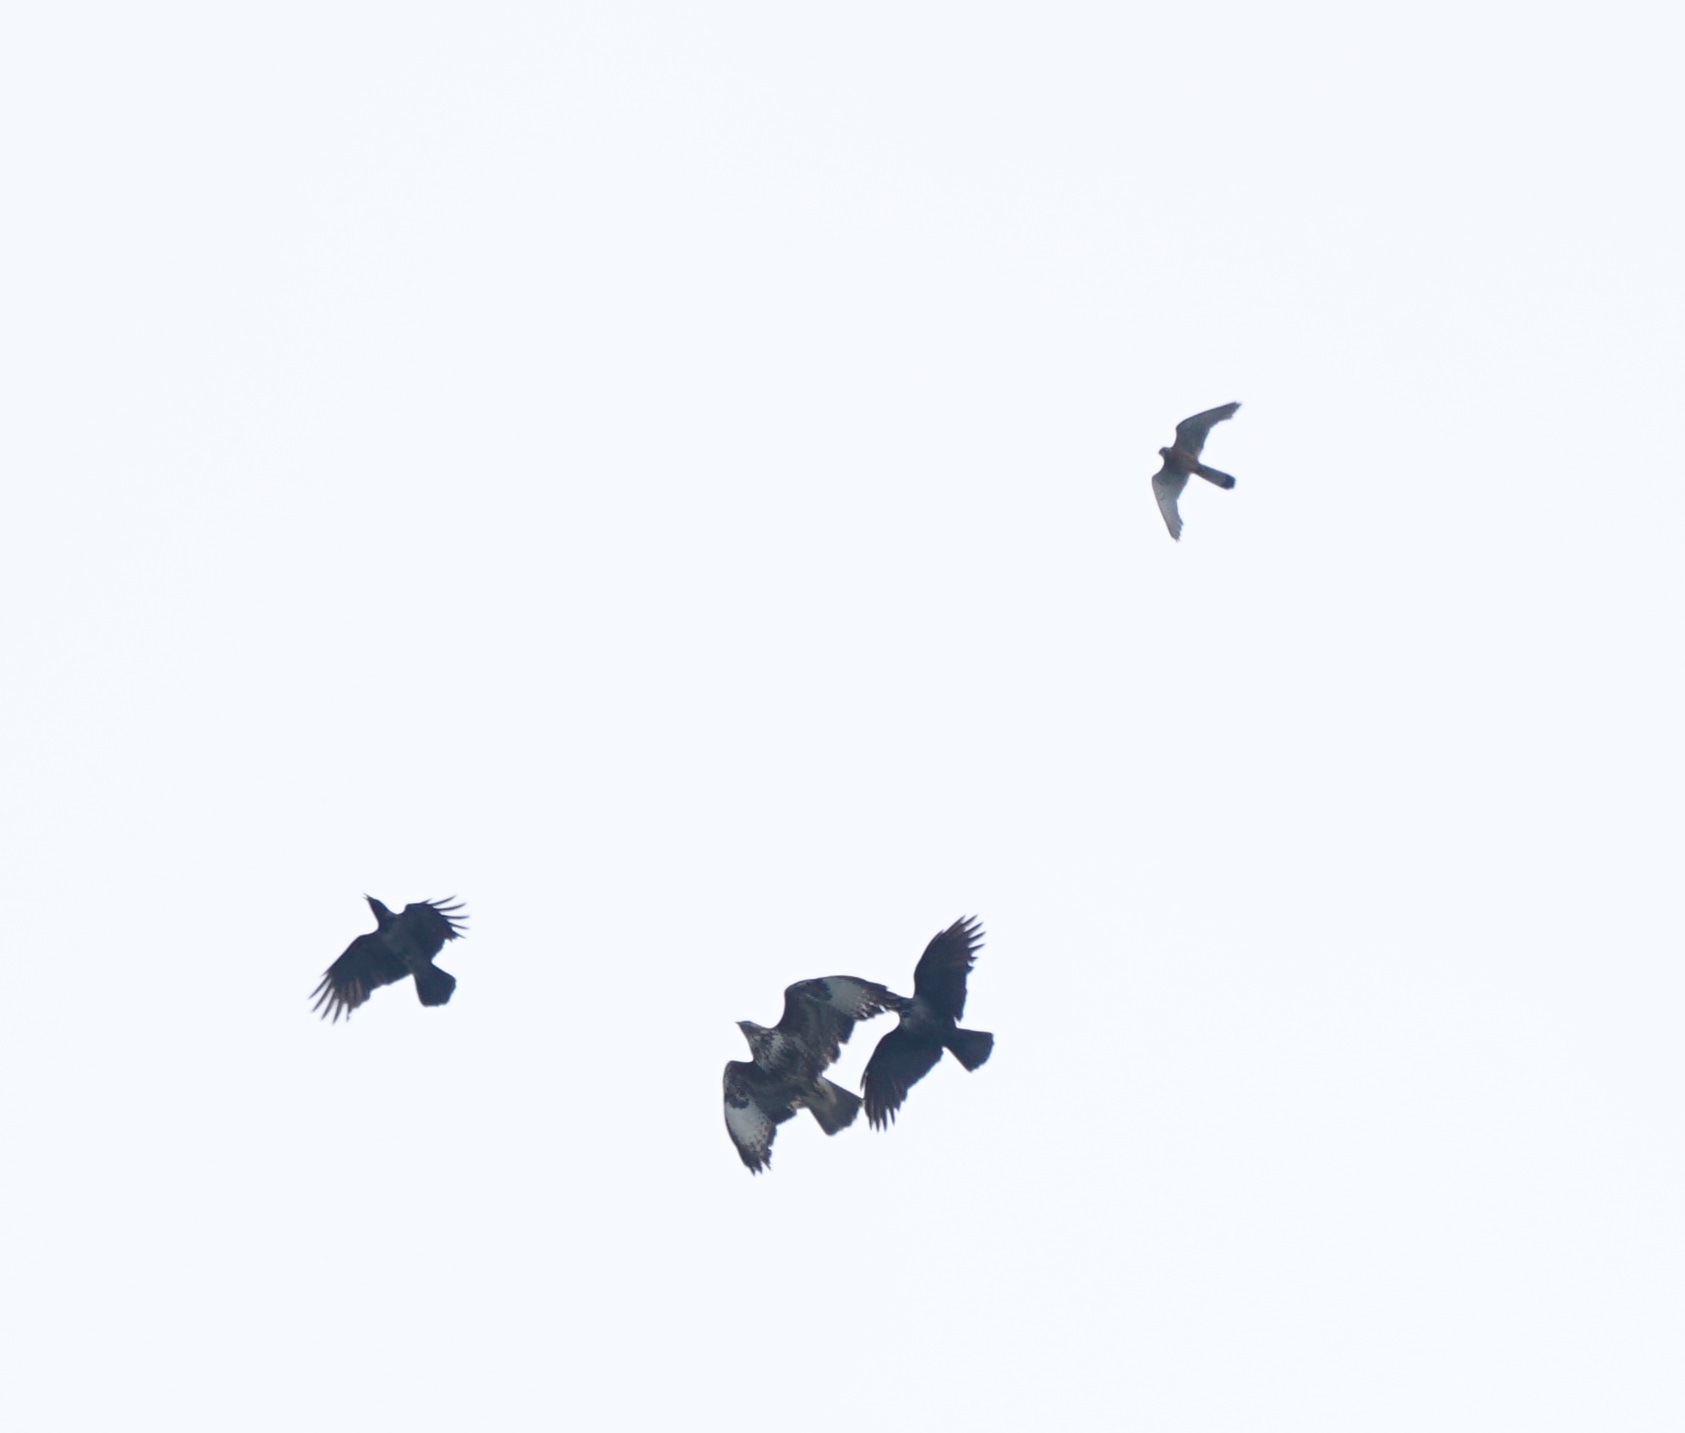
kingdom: Animalia
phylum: Chordata
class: Aves
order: Accipitriformes
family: Accipitridae
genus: Buteo
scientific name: Buteo buteo
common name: Common buzzard
